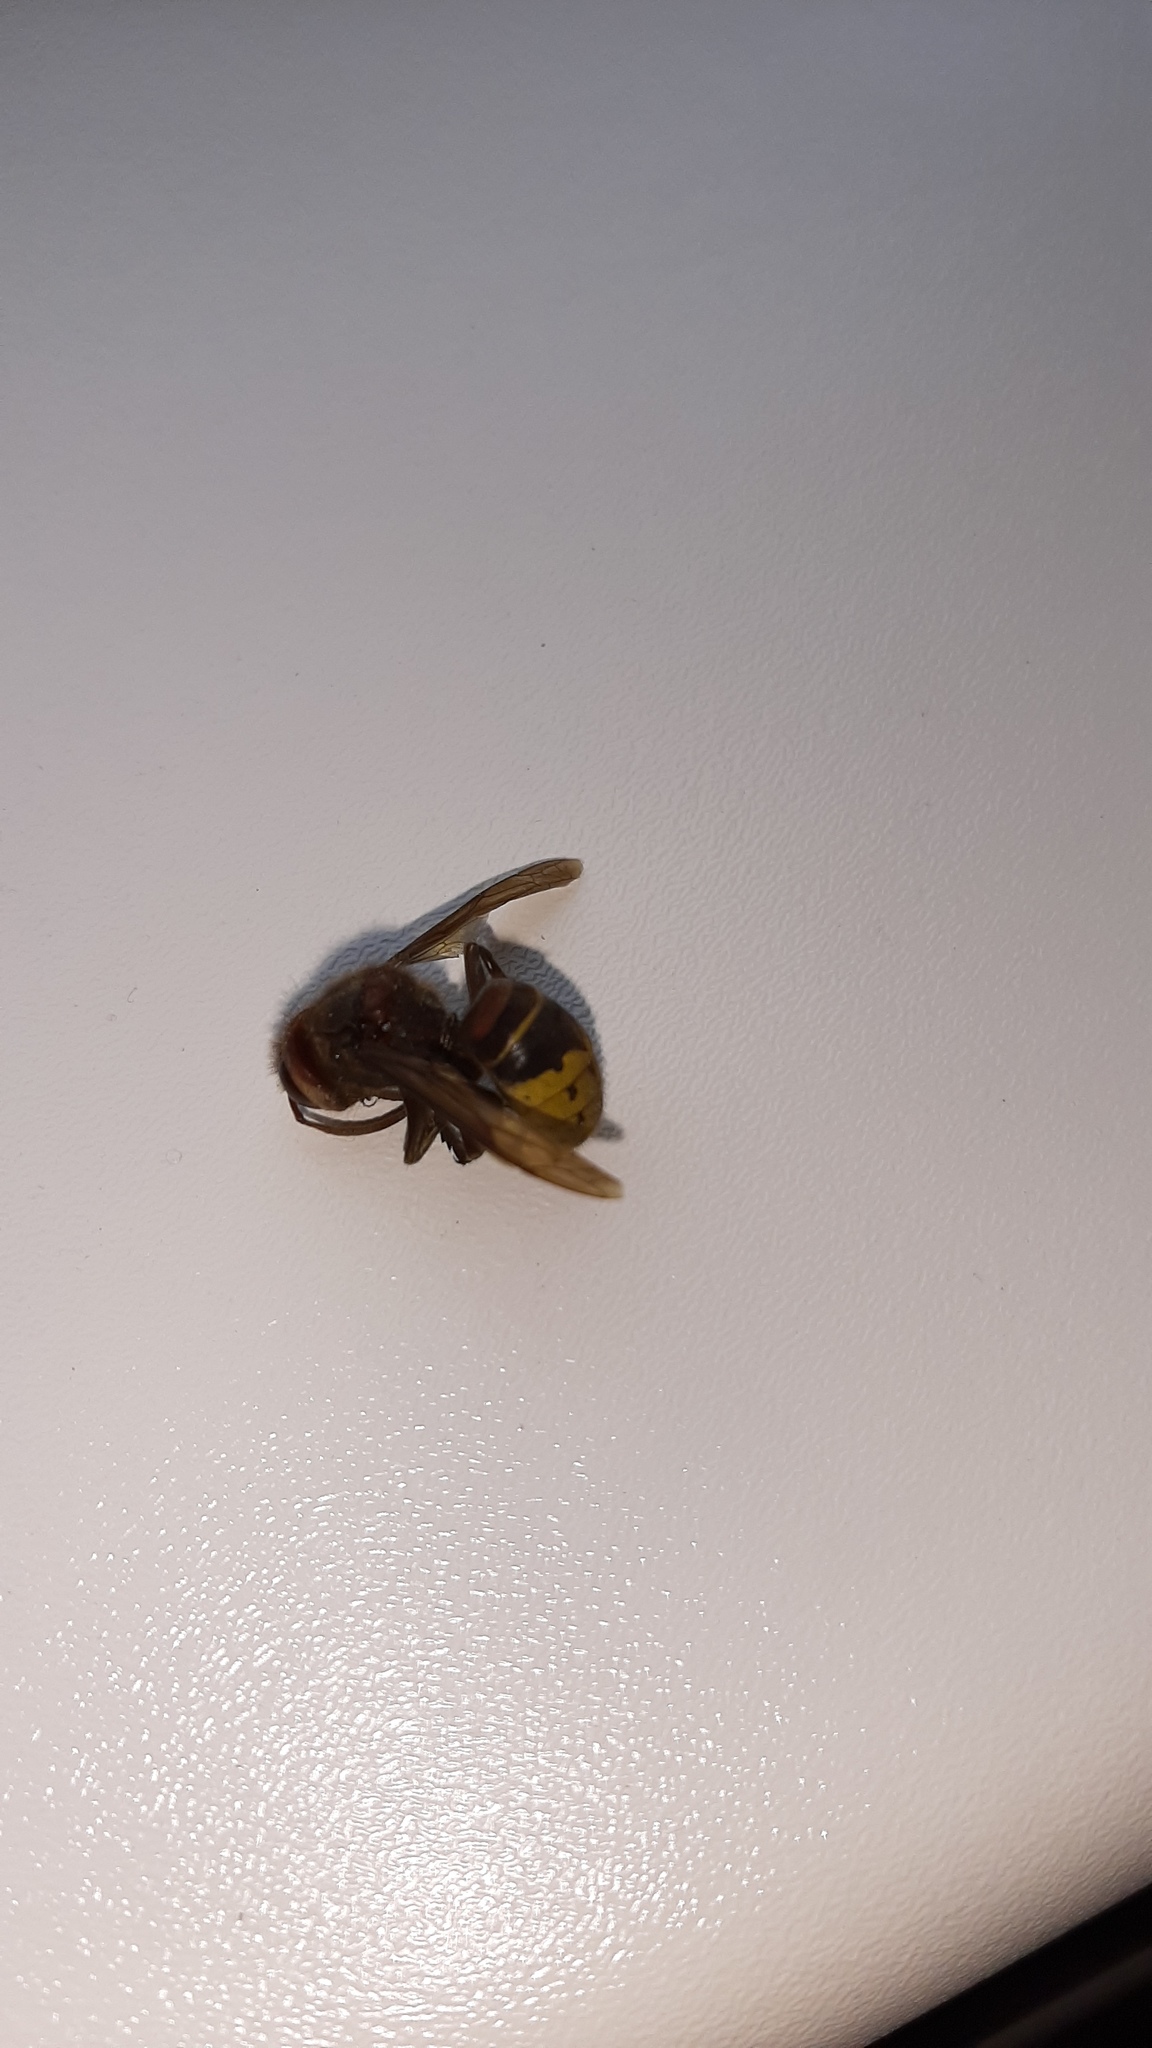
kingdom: Animalia
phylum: Arthropoda
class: Insecta
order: Hymenoptera
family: Vespidae
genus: Vespa
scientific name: Vespa crabro
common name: Hornet
